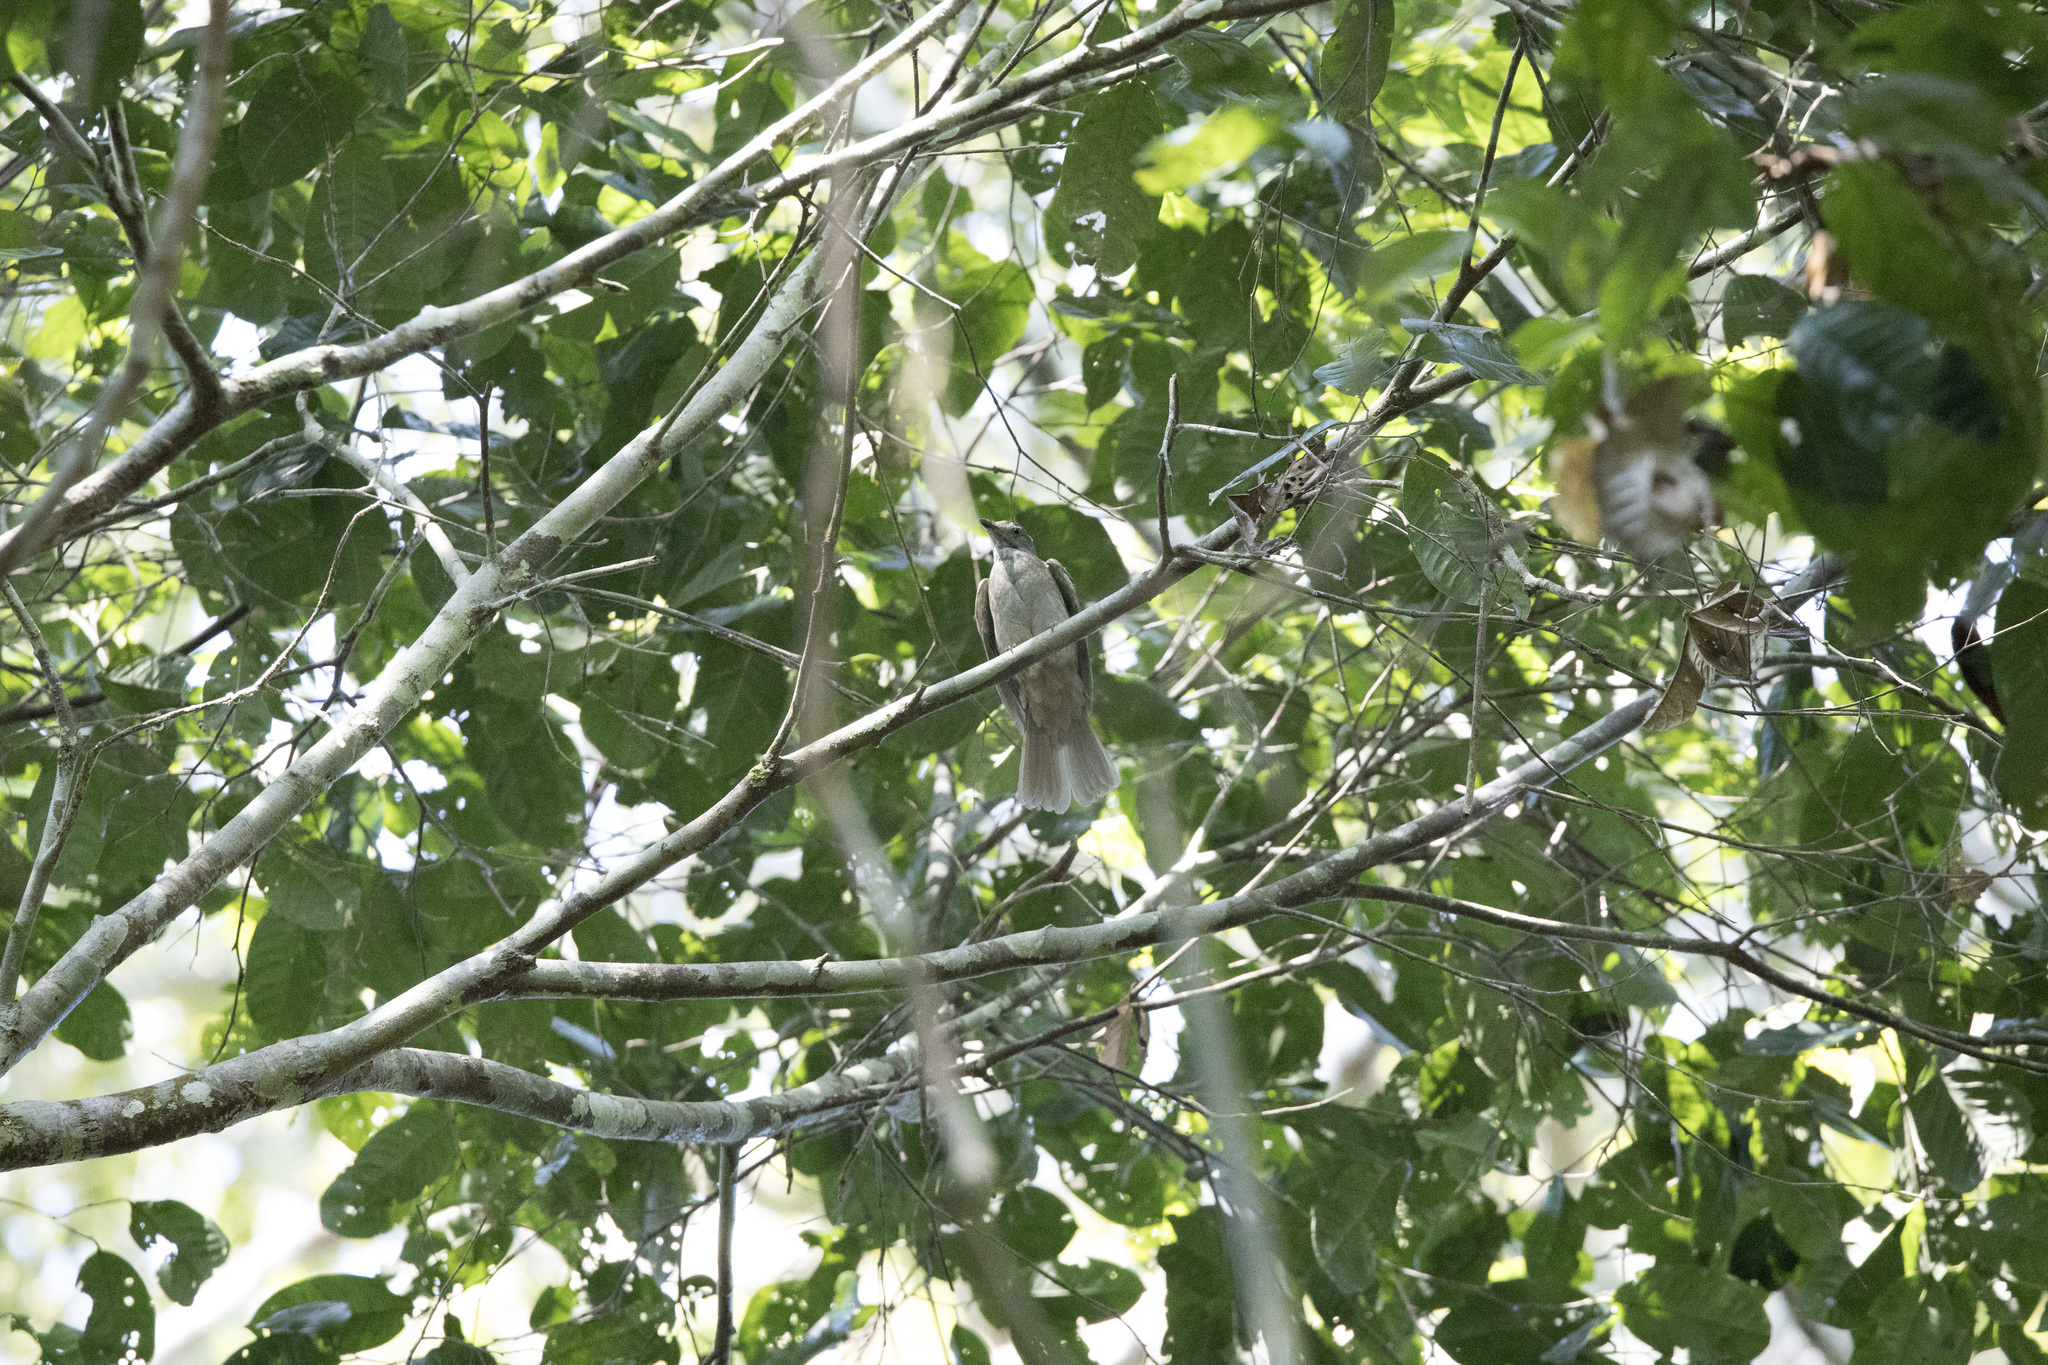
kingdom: Animalia
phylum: Chordata
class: Aves
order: Passeriformes
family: Cotingidae
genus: Lipaugus
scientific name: Lipaugus vociferans
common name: Screaming piha
